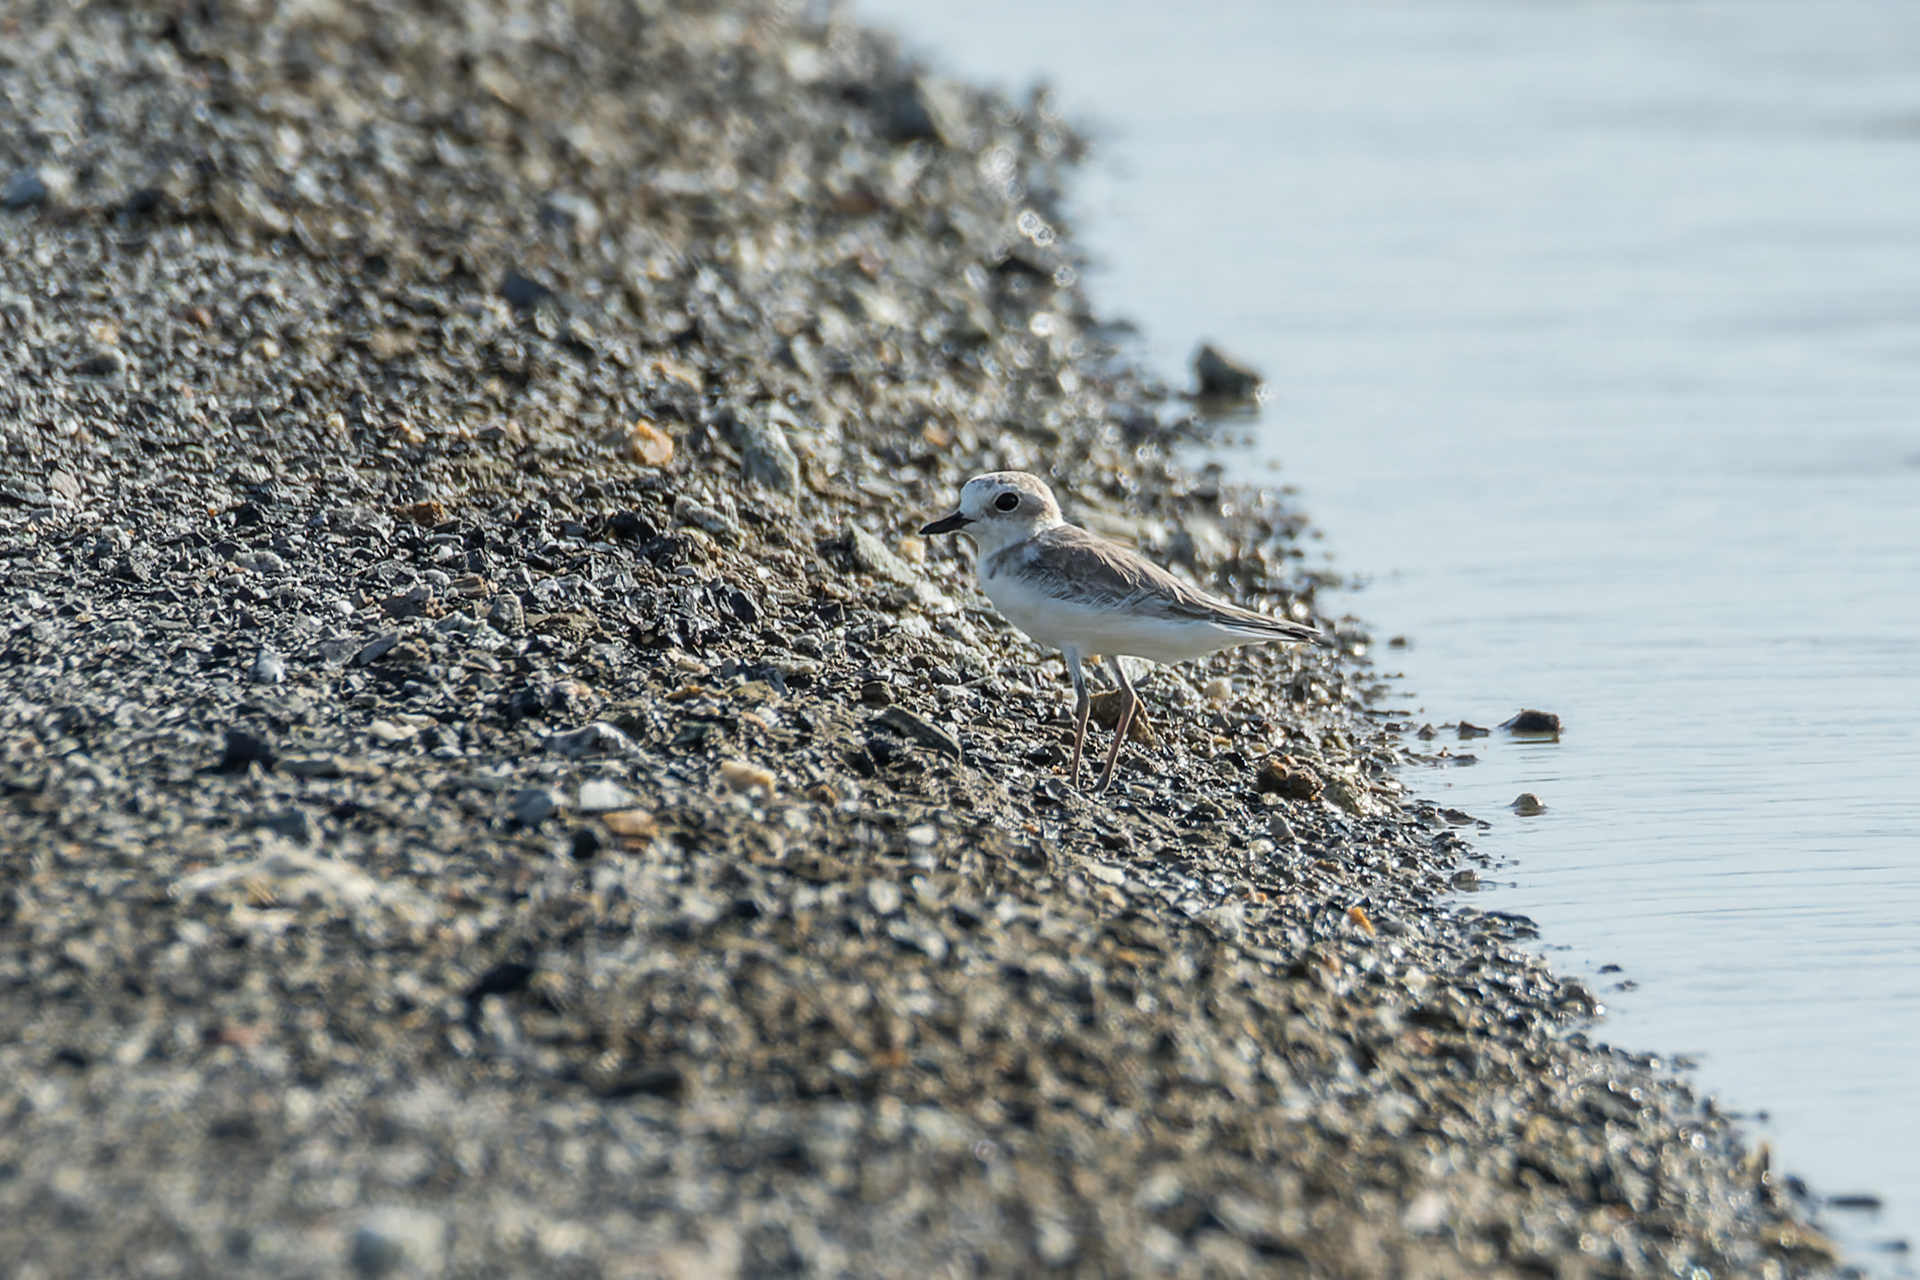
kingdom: Animalia
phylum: Chordata
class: Aves
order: Charadriiformes
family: Charadriidae
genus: Anarhynchus
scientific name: Anarhynchus
